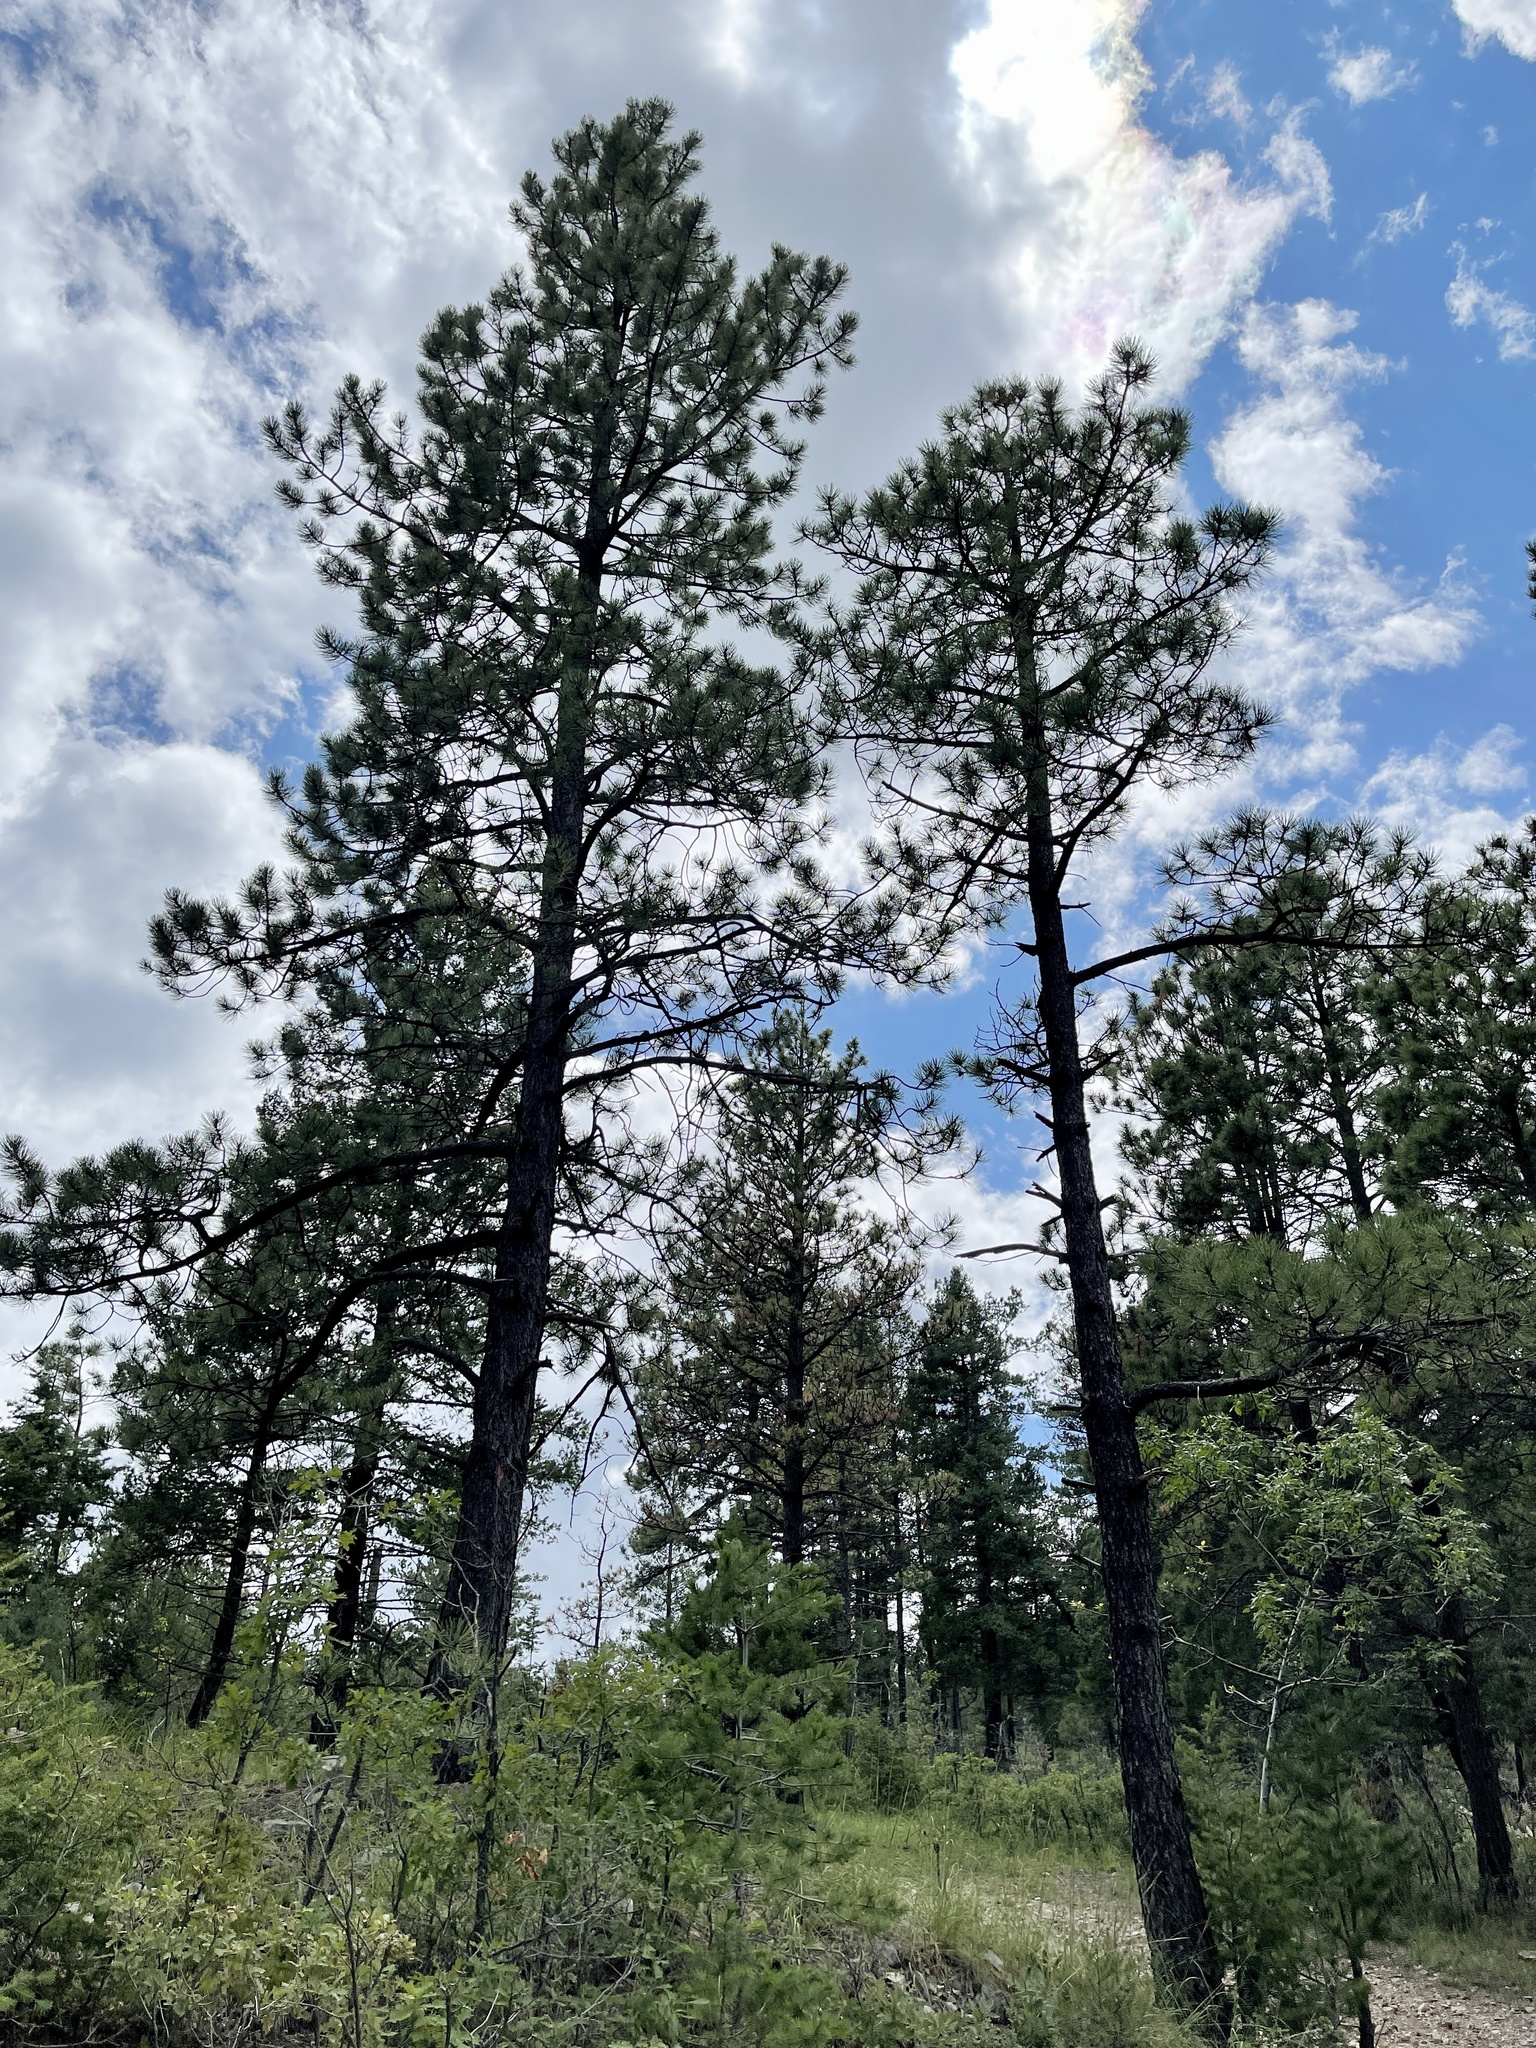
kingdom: Plantae
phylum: Tracheophyta
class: Pinopsida
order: Pinales
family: Pinaceae
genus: Pinus
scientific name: Pinus ponderosa
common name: Western yellow-pine
